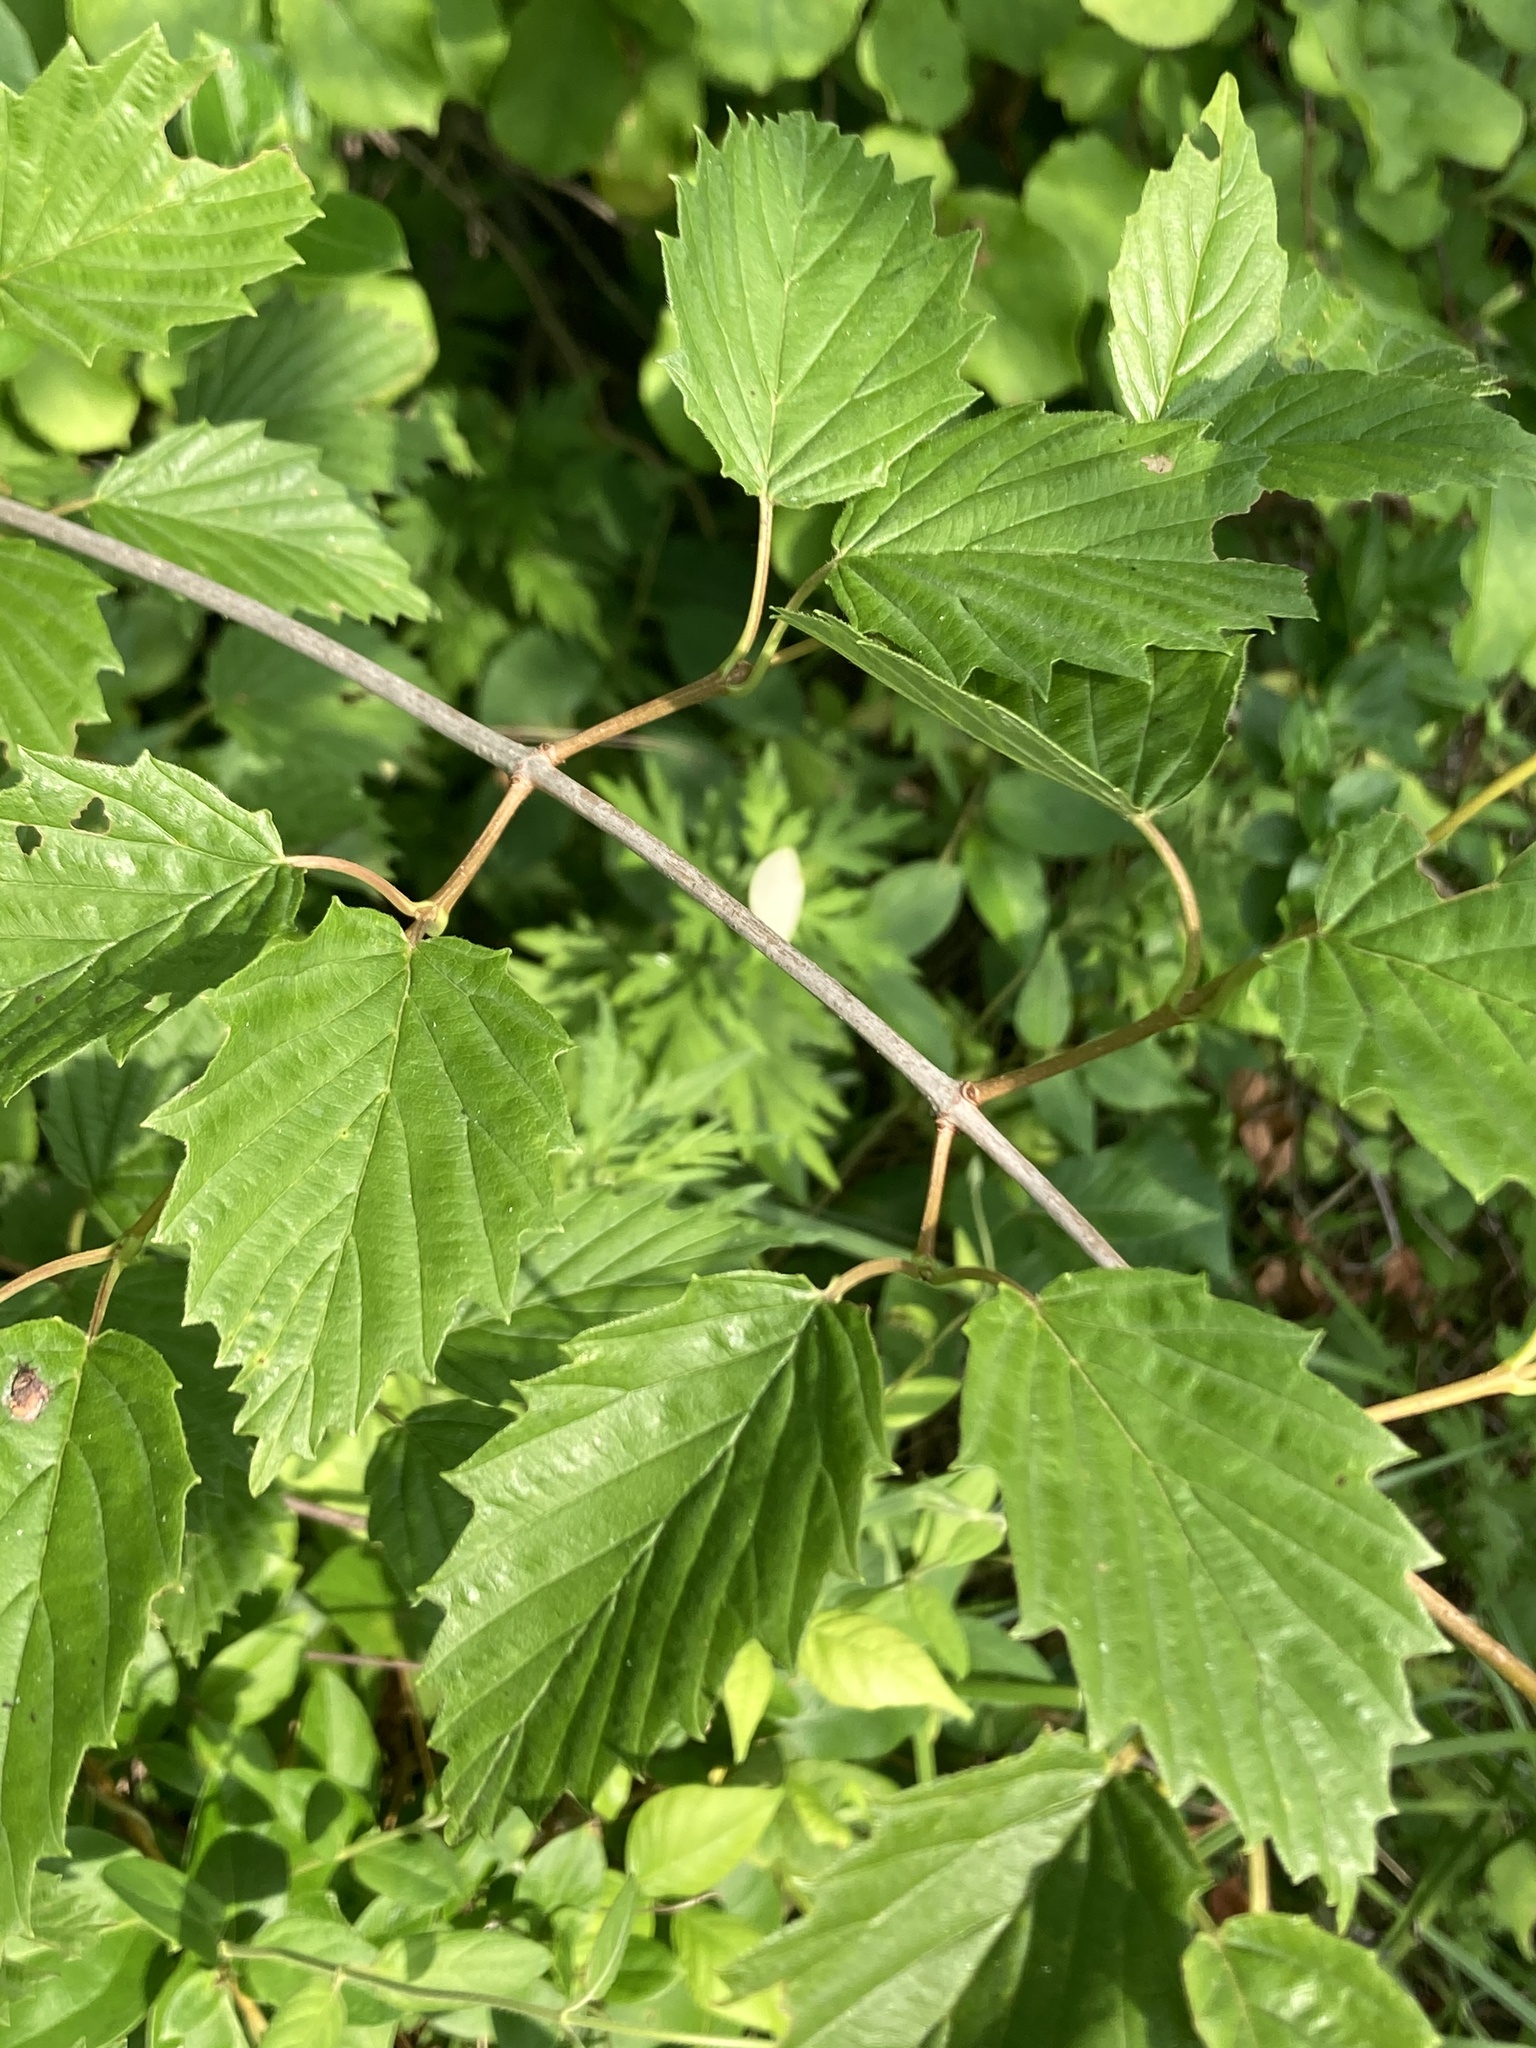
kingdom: Plantae
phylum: Tracheophyta
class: Magnoliopsida
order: Dipsacales
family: Viburnaceae
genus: Viburnum
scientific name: Viburnum recognitum
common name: Northern arrow-wood
